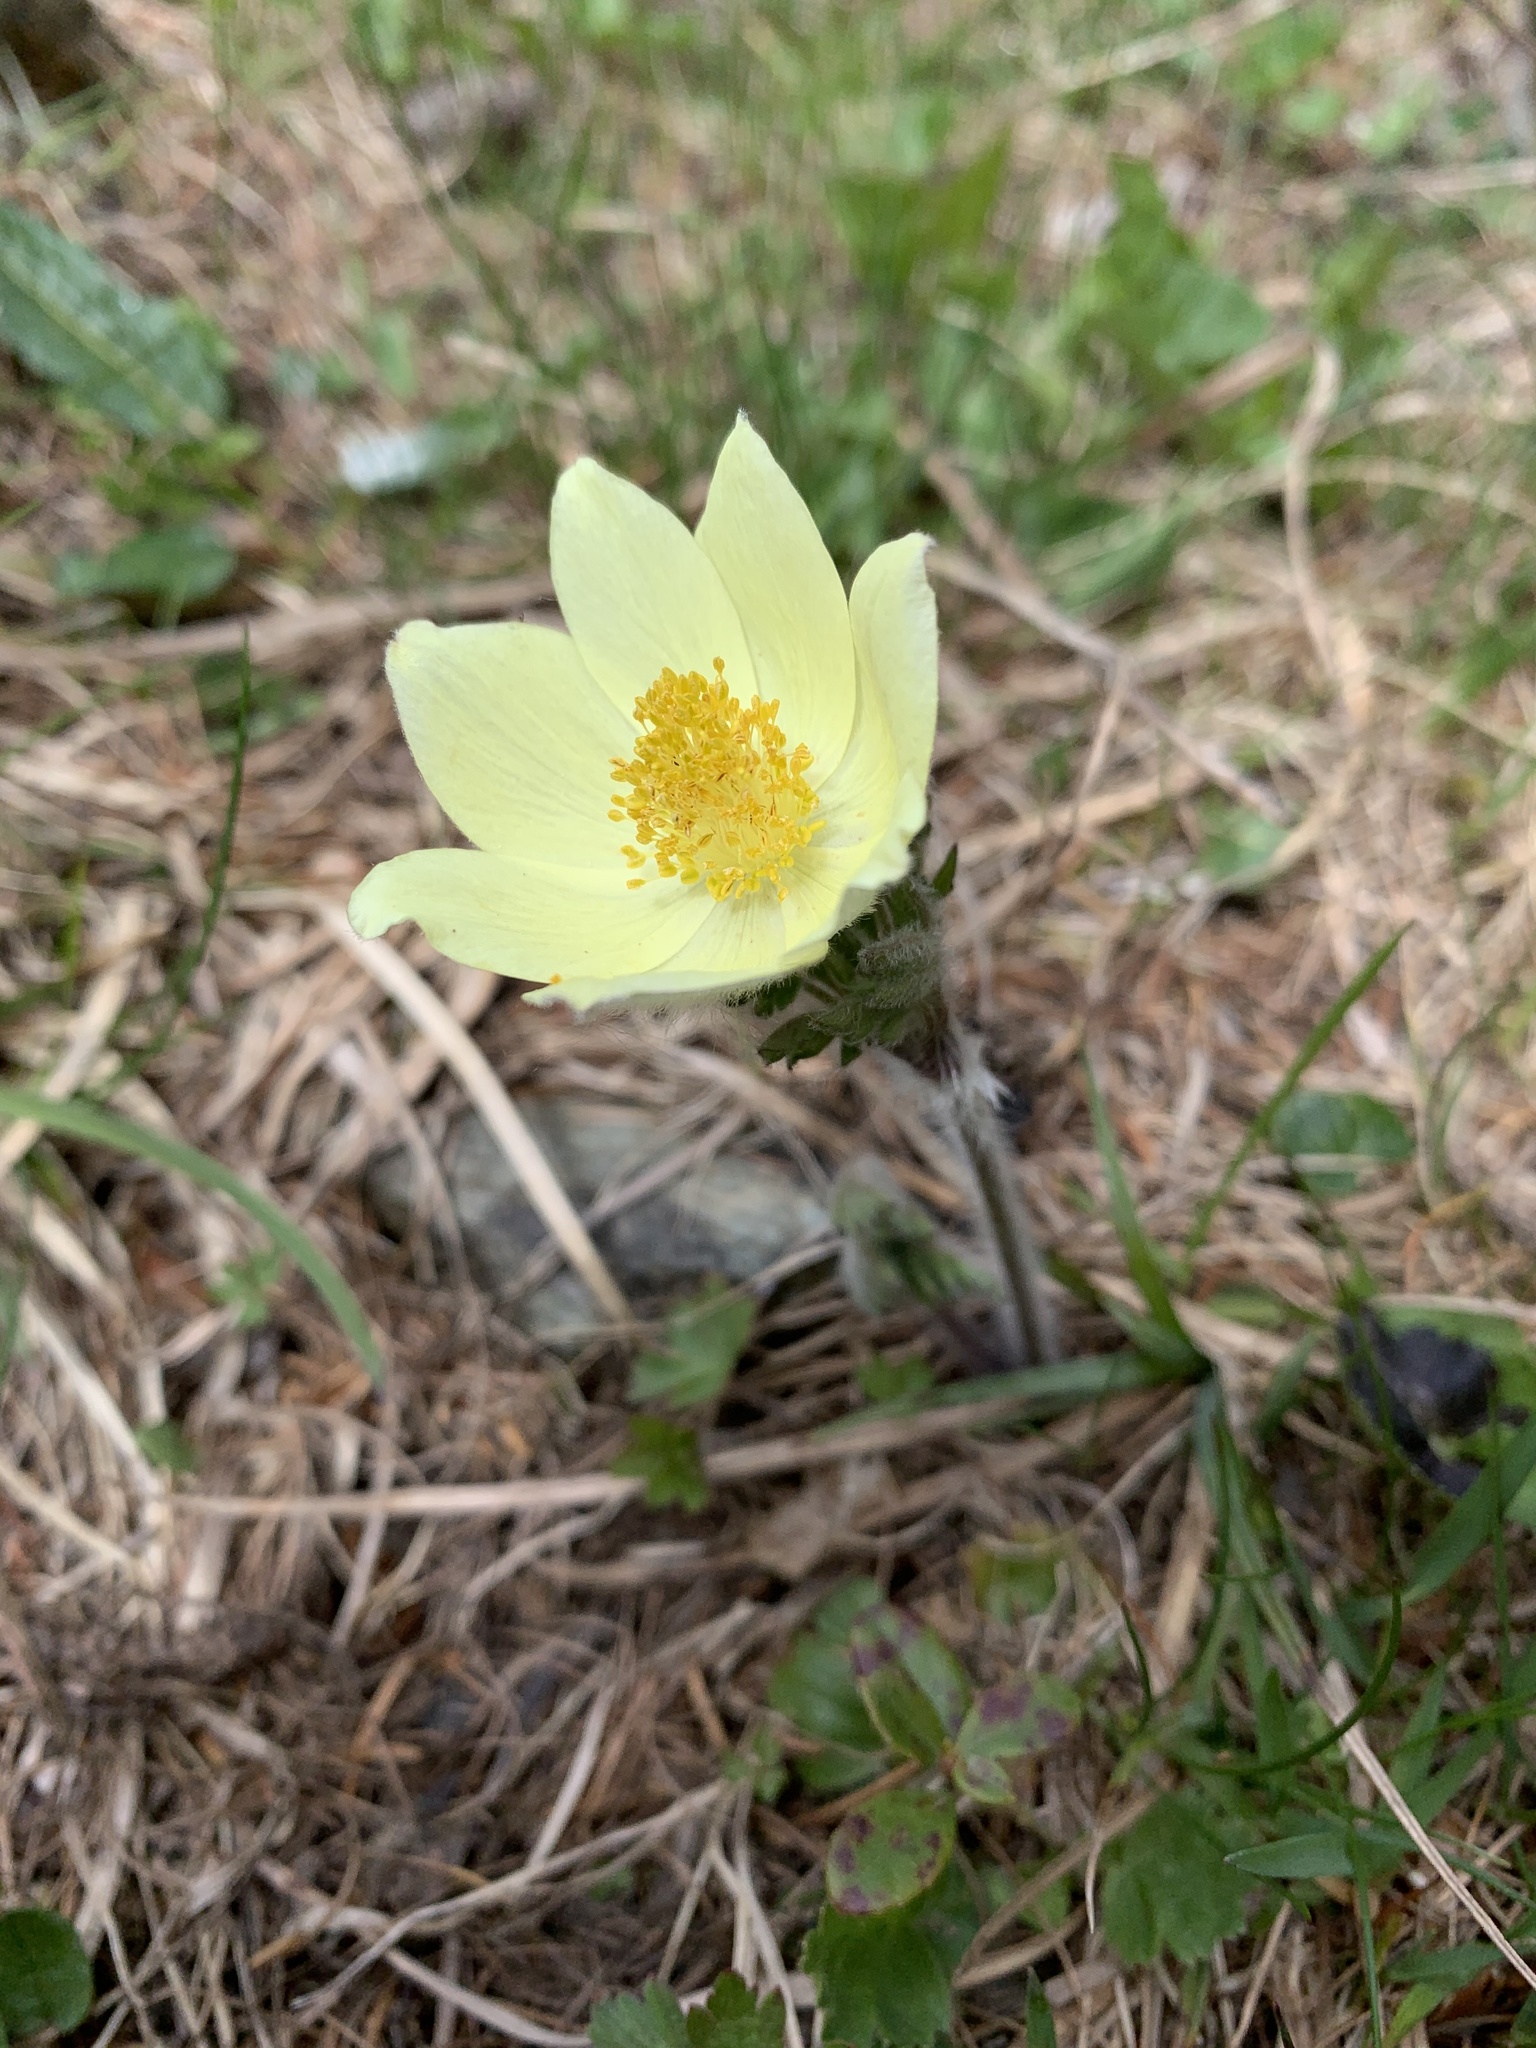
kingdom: Plantae
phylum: Tracheophyta
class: Magnoliopsida
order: Ranunculales
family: Ranunculaceae
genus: Pulsatilla
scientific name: Pulsatilla alpina
